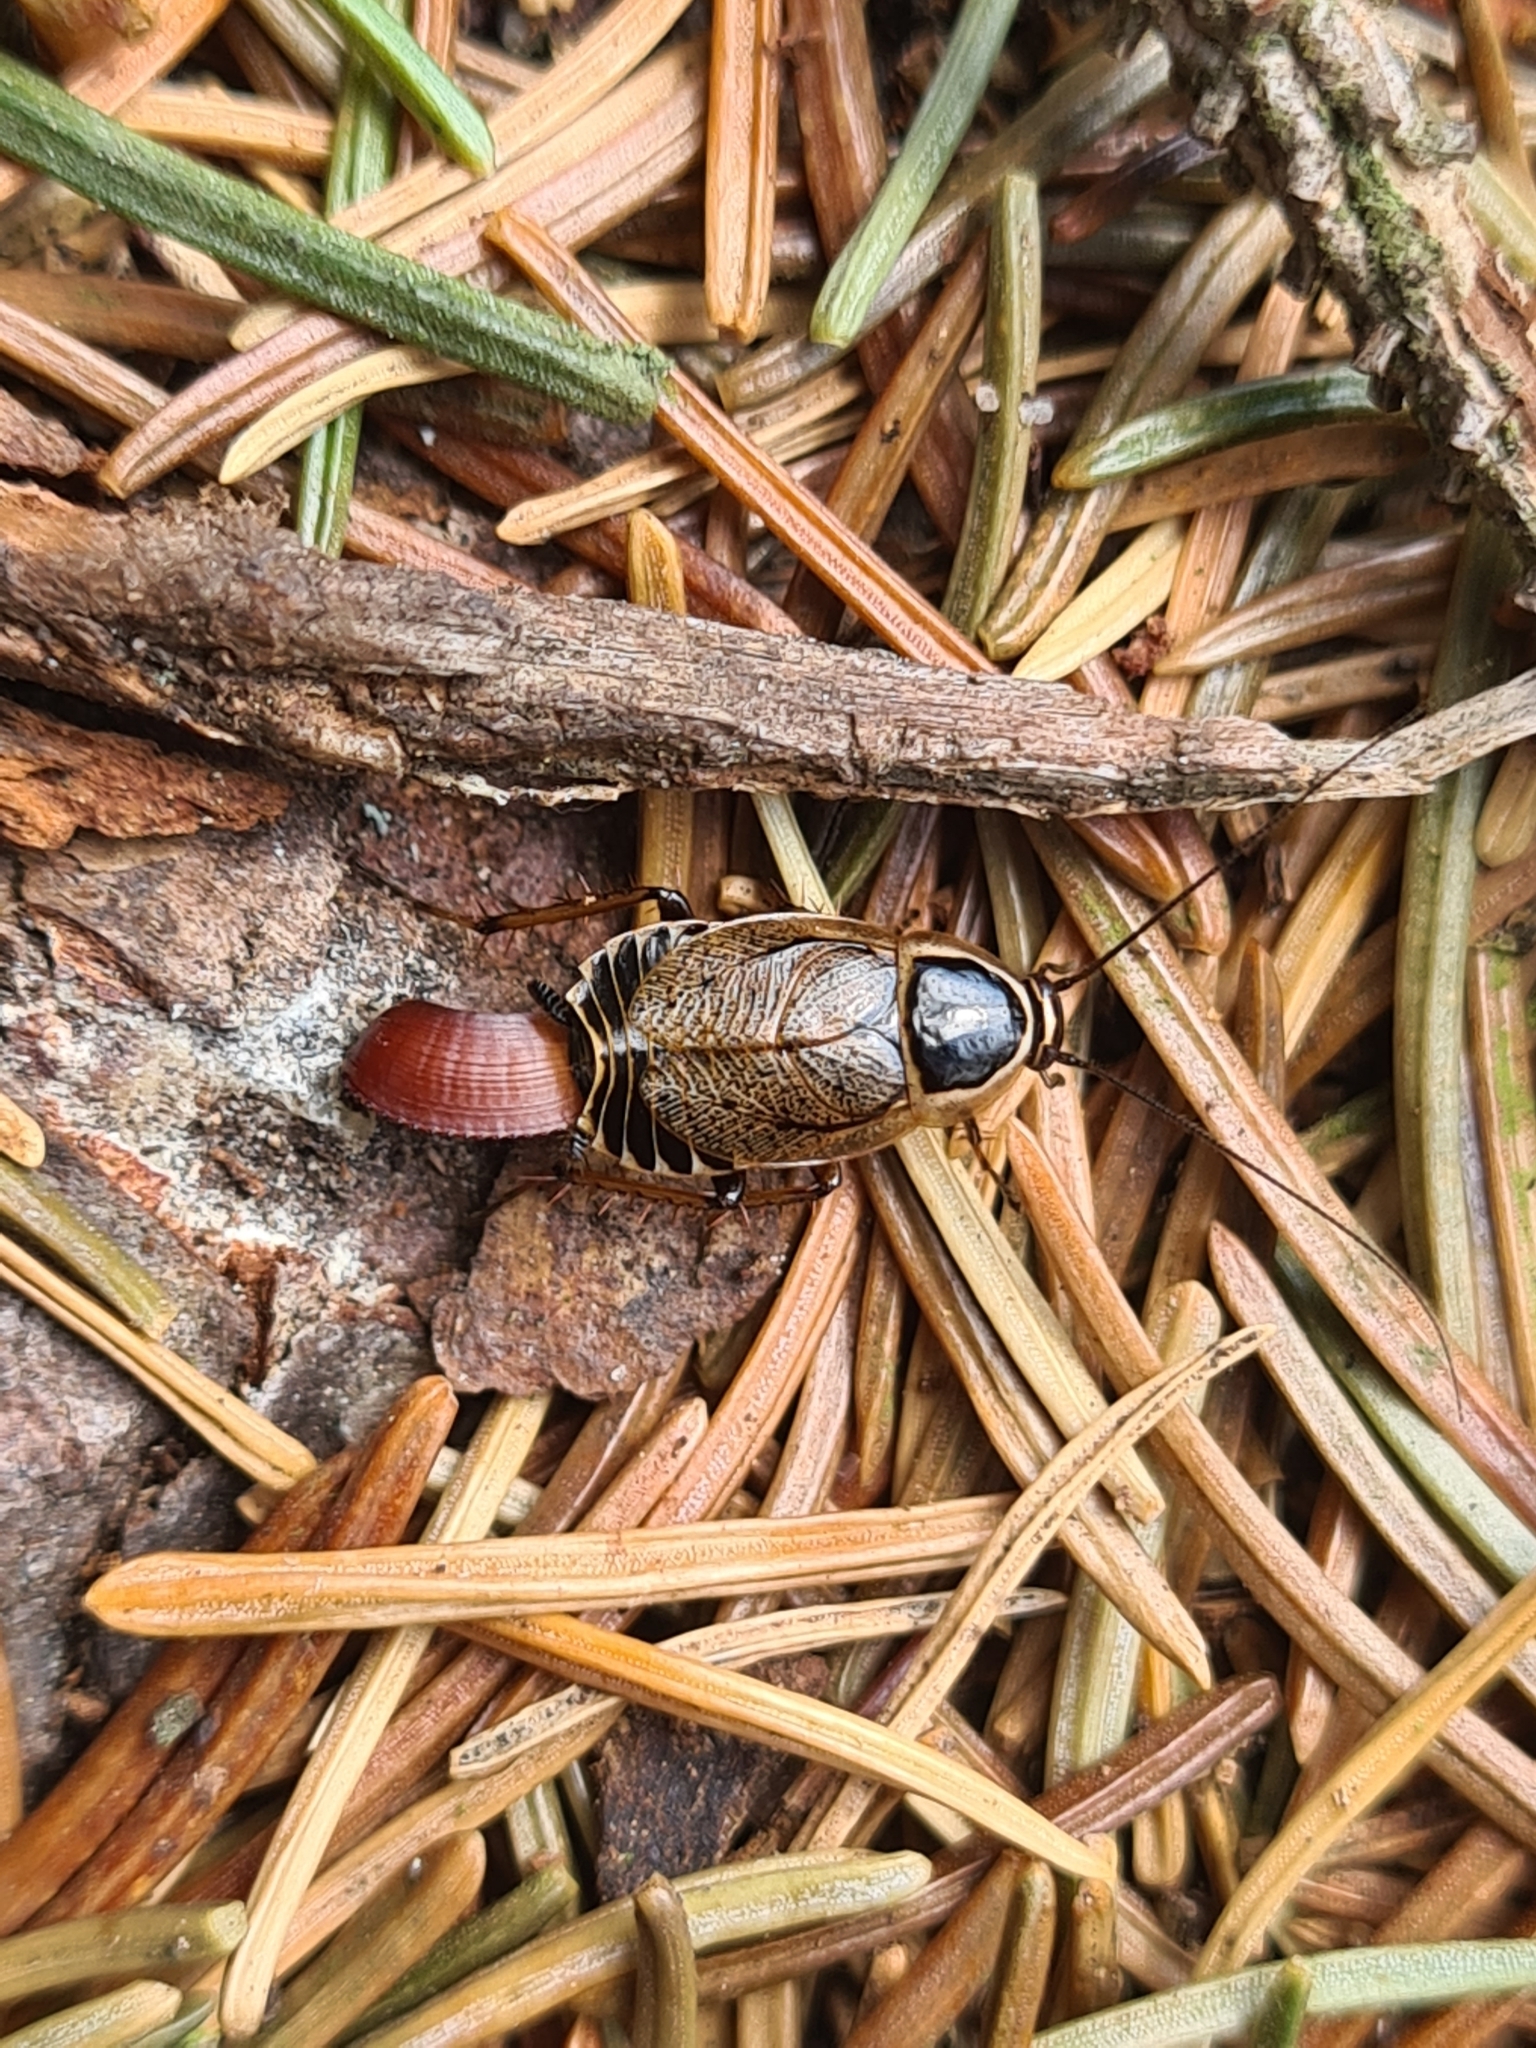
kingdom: Animalia
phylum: Arthropoda
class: Insecta
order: Blattodea
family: Ectobiidae
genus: Ectobius
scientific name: Ectobius sylvestris
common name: Forest cockroach
